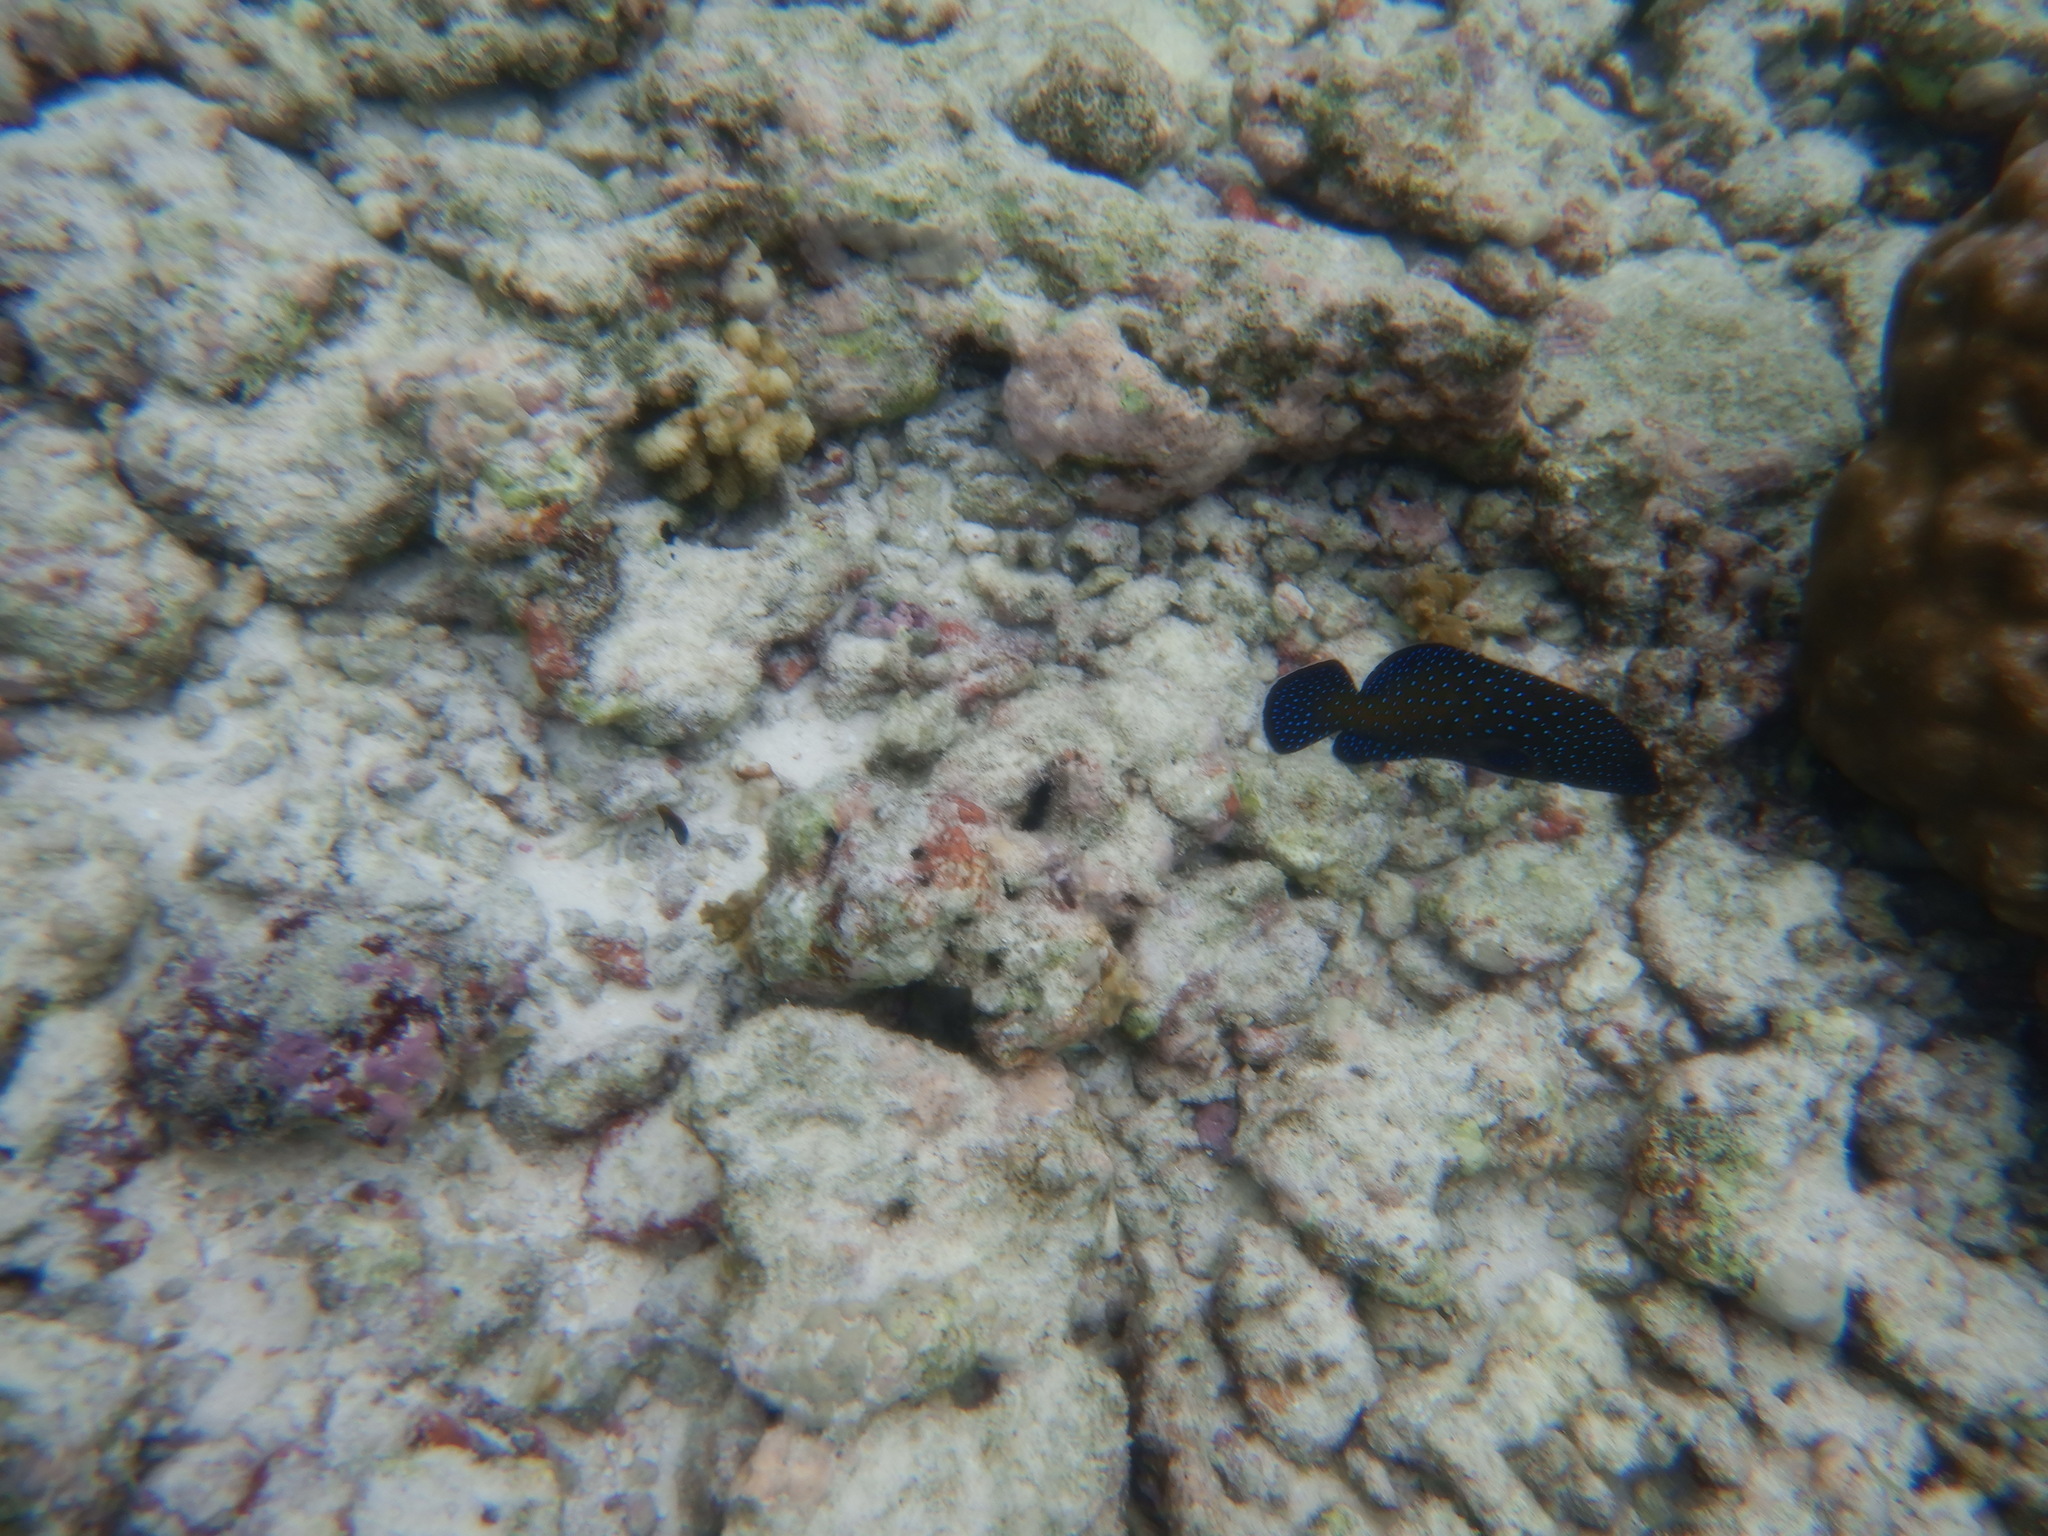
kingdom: Animalia
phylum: Chordata
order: Perciformes
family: Serranidae
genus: Cephalopholis
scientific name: Cephalopholis argus
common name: Peacock grouper
